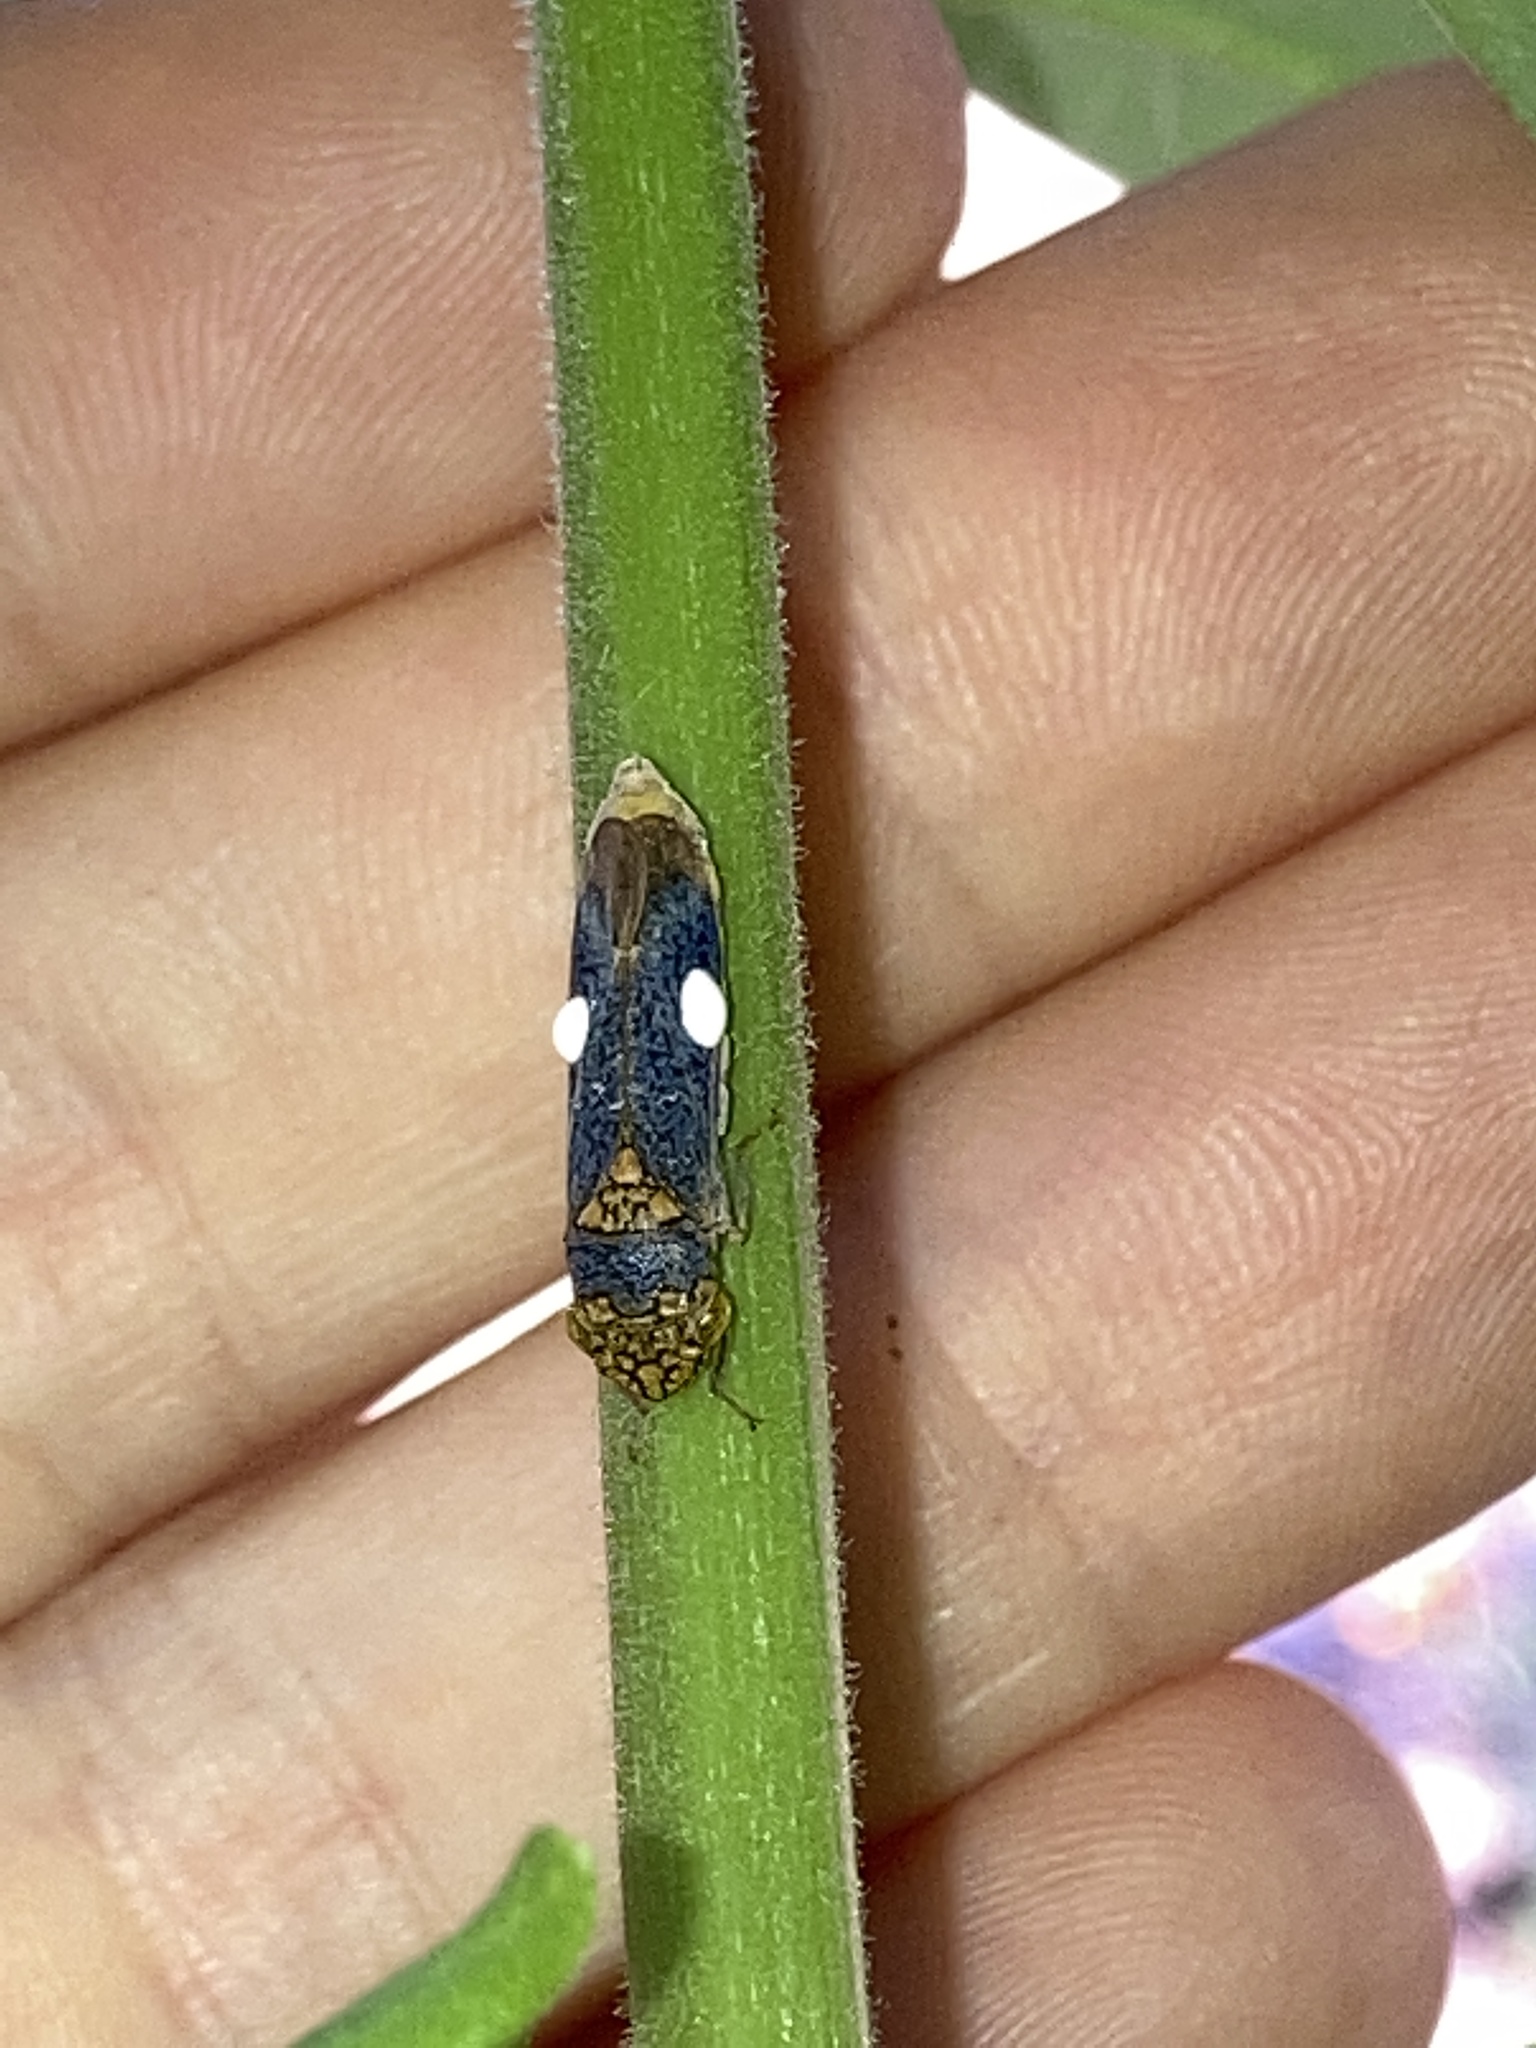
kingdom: Animalia
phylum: Arthropoda
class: Insecta
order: Hemiptera
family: Cicadellidae
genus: Oncometopia
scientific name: Oncometopia orbona
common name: Broad-headed sharpshooter
